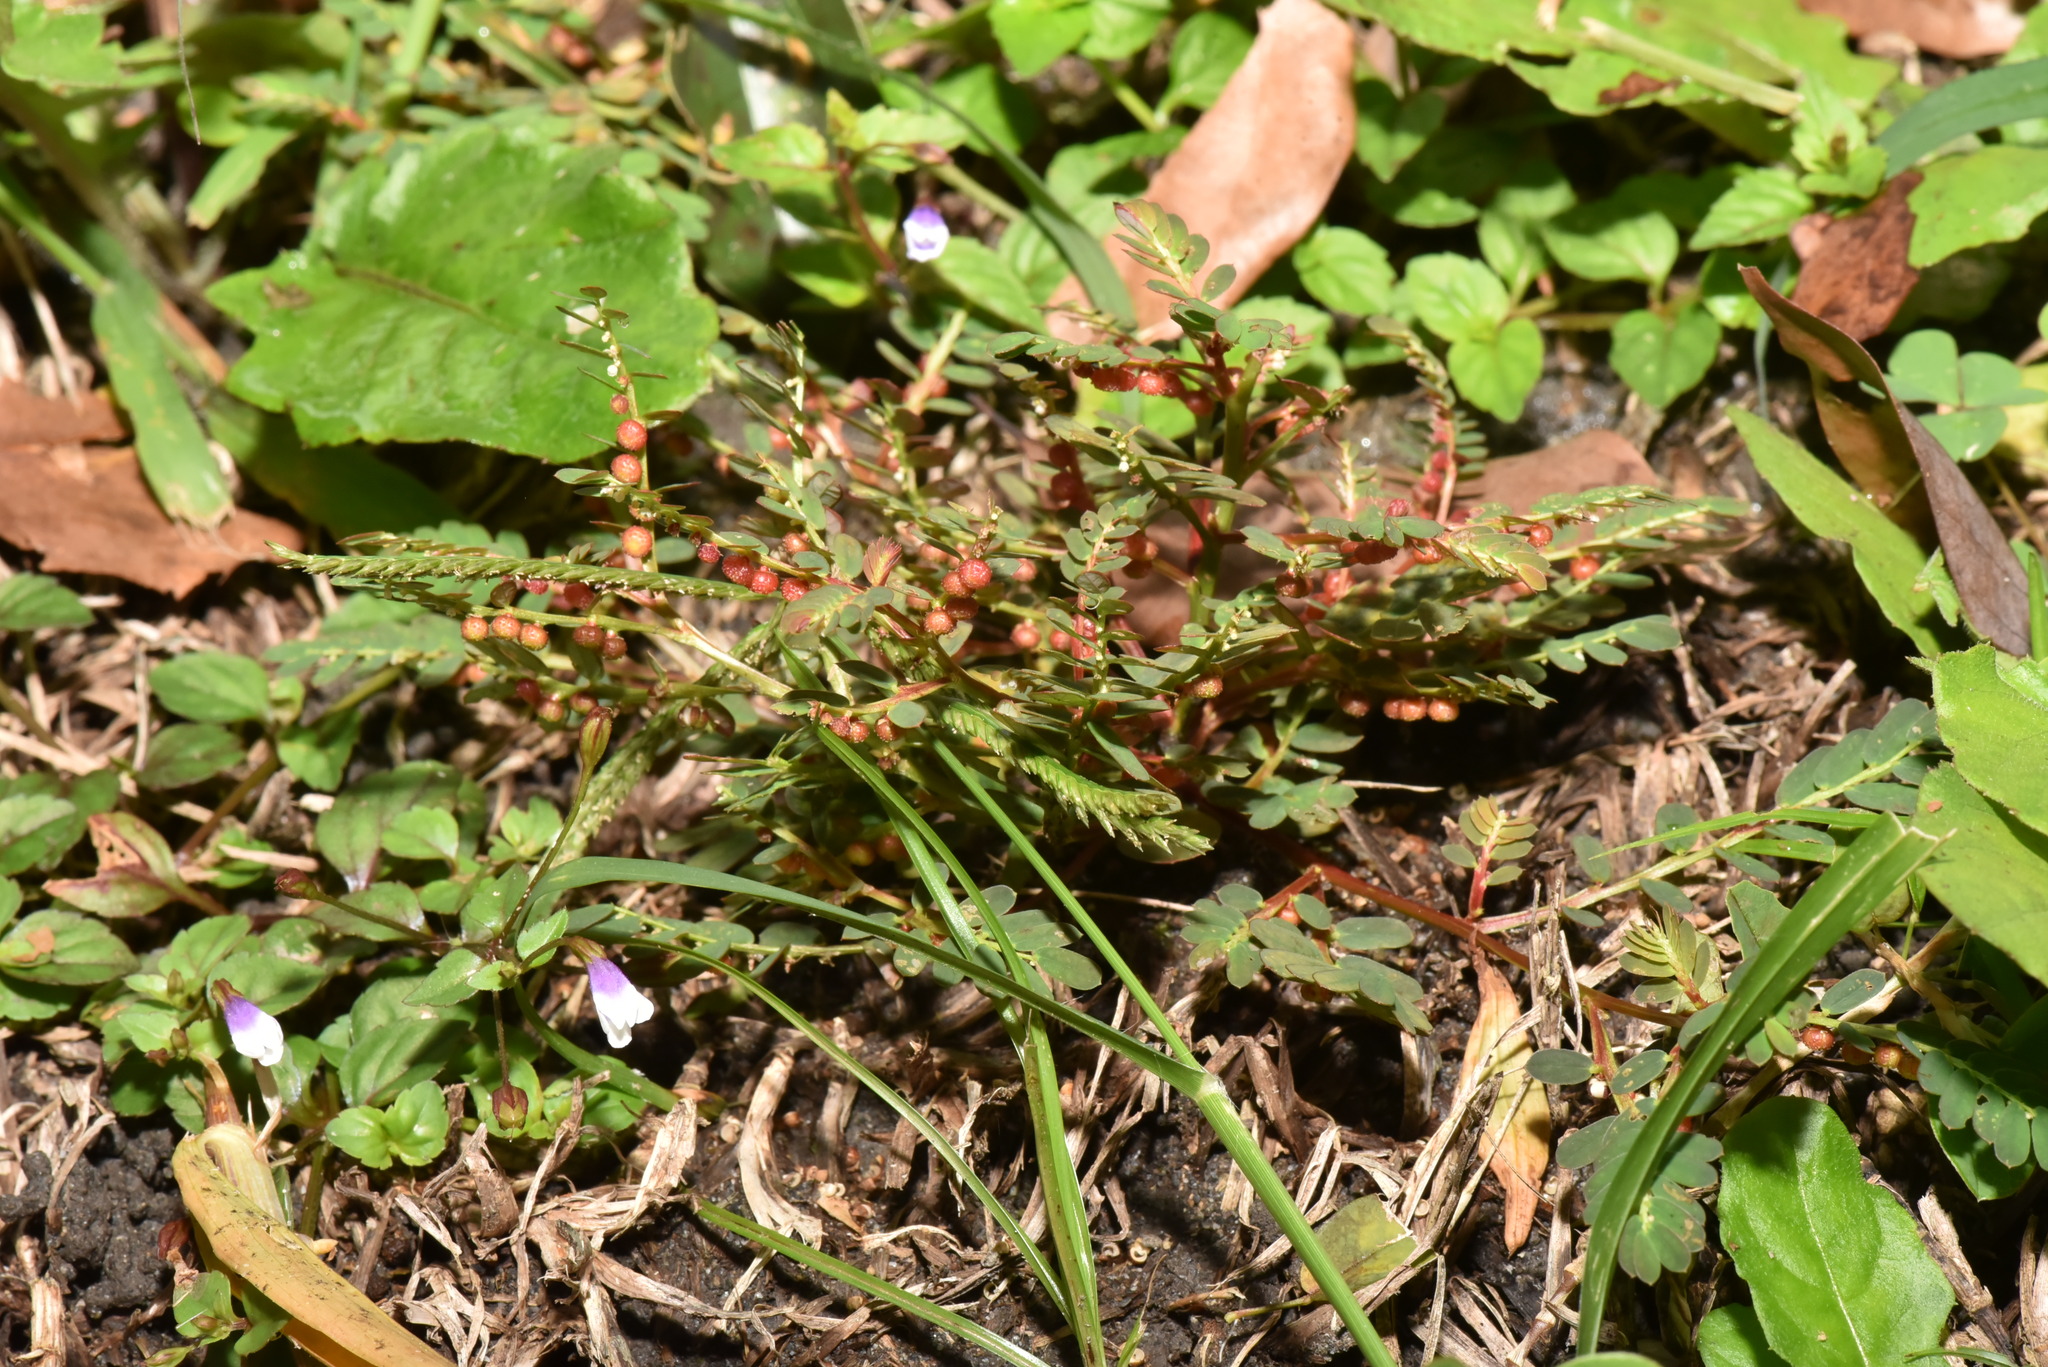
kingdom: Plantae
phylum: Tracheophyta
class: Magnoliopsida
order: Malpighiales
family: Phyllanthaceae
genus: Phyllanthus
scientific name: Phyllanthus urinaria
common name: Chamber bitter
